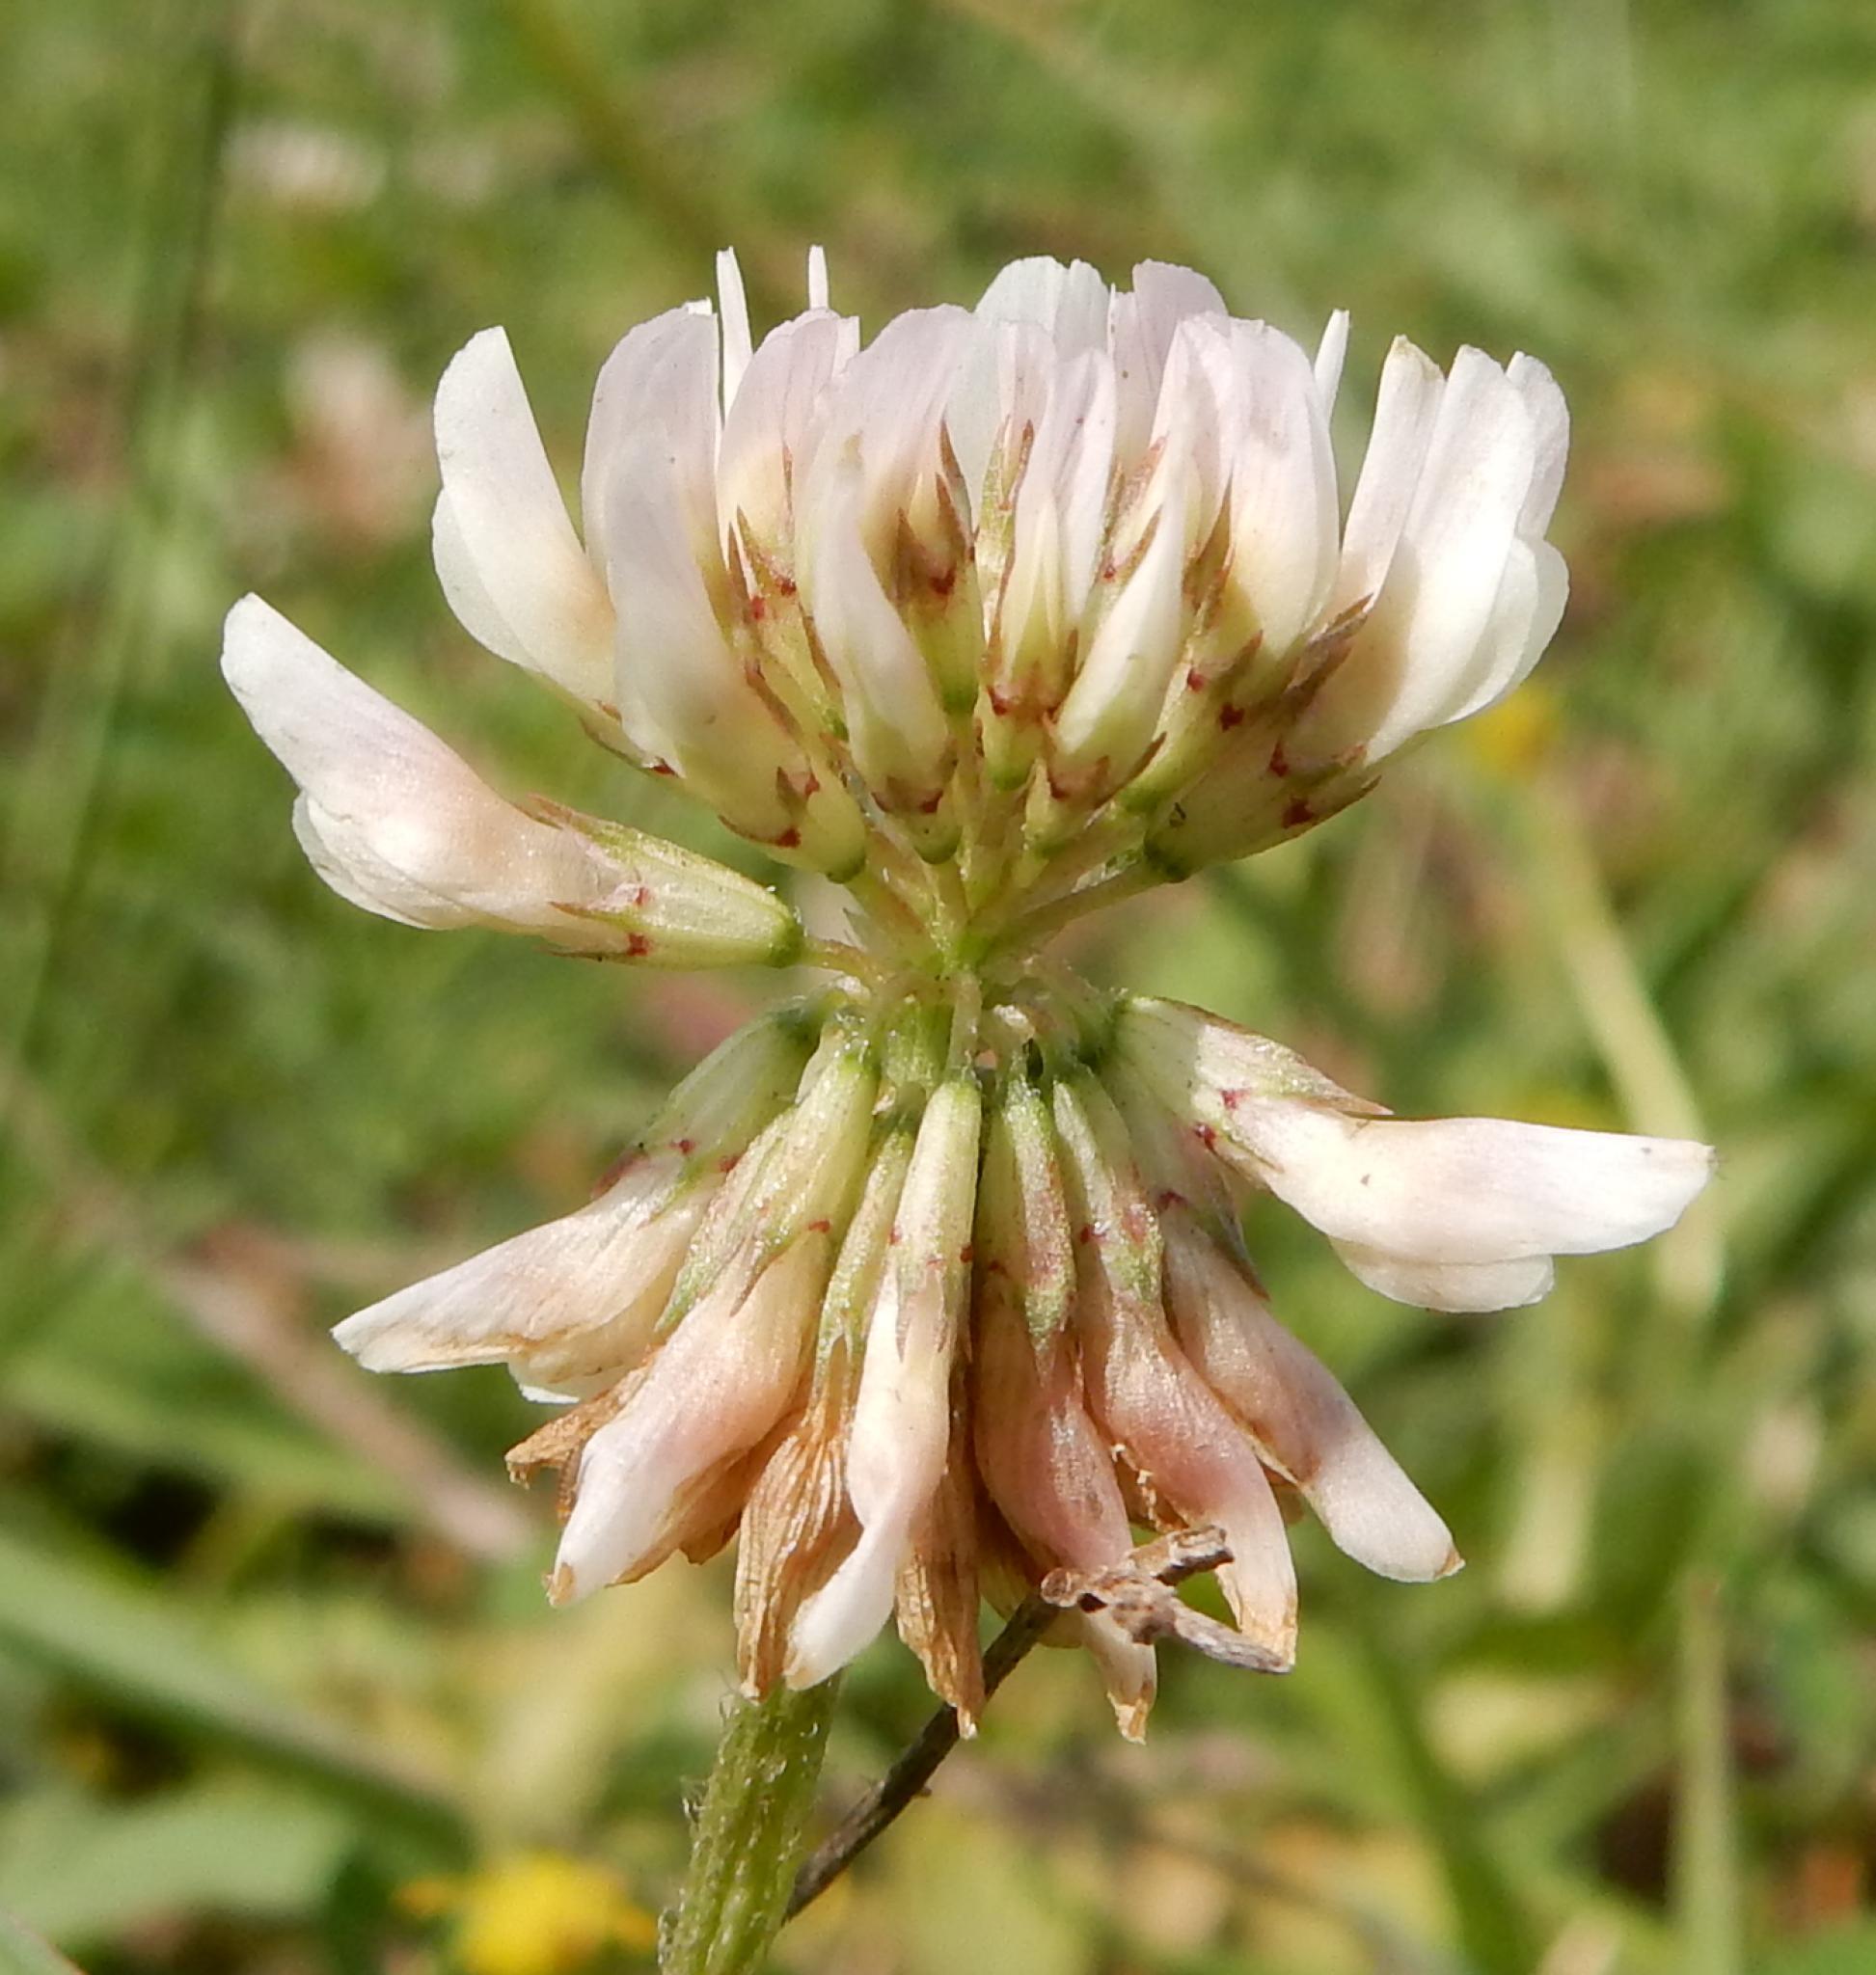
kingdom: Plantae
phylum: Tracheophyta
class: Magnoliopsida
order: Fabales
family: Fabaceae
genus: Trifolium
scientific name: Trifolium repens
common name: White clover
